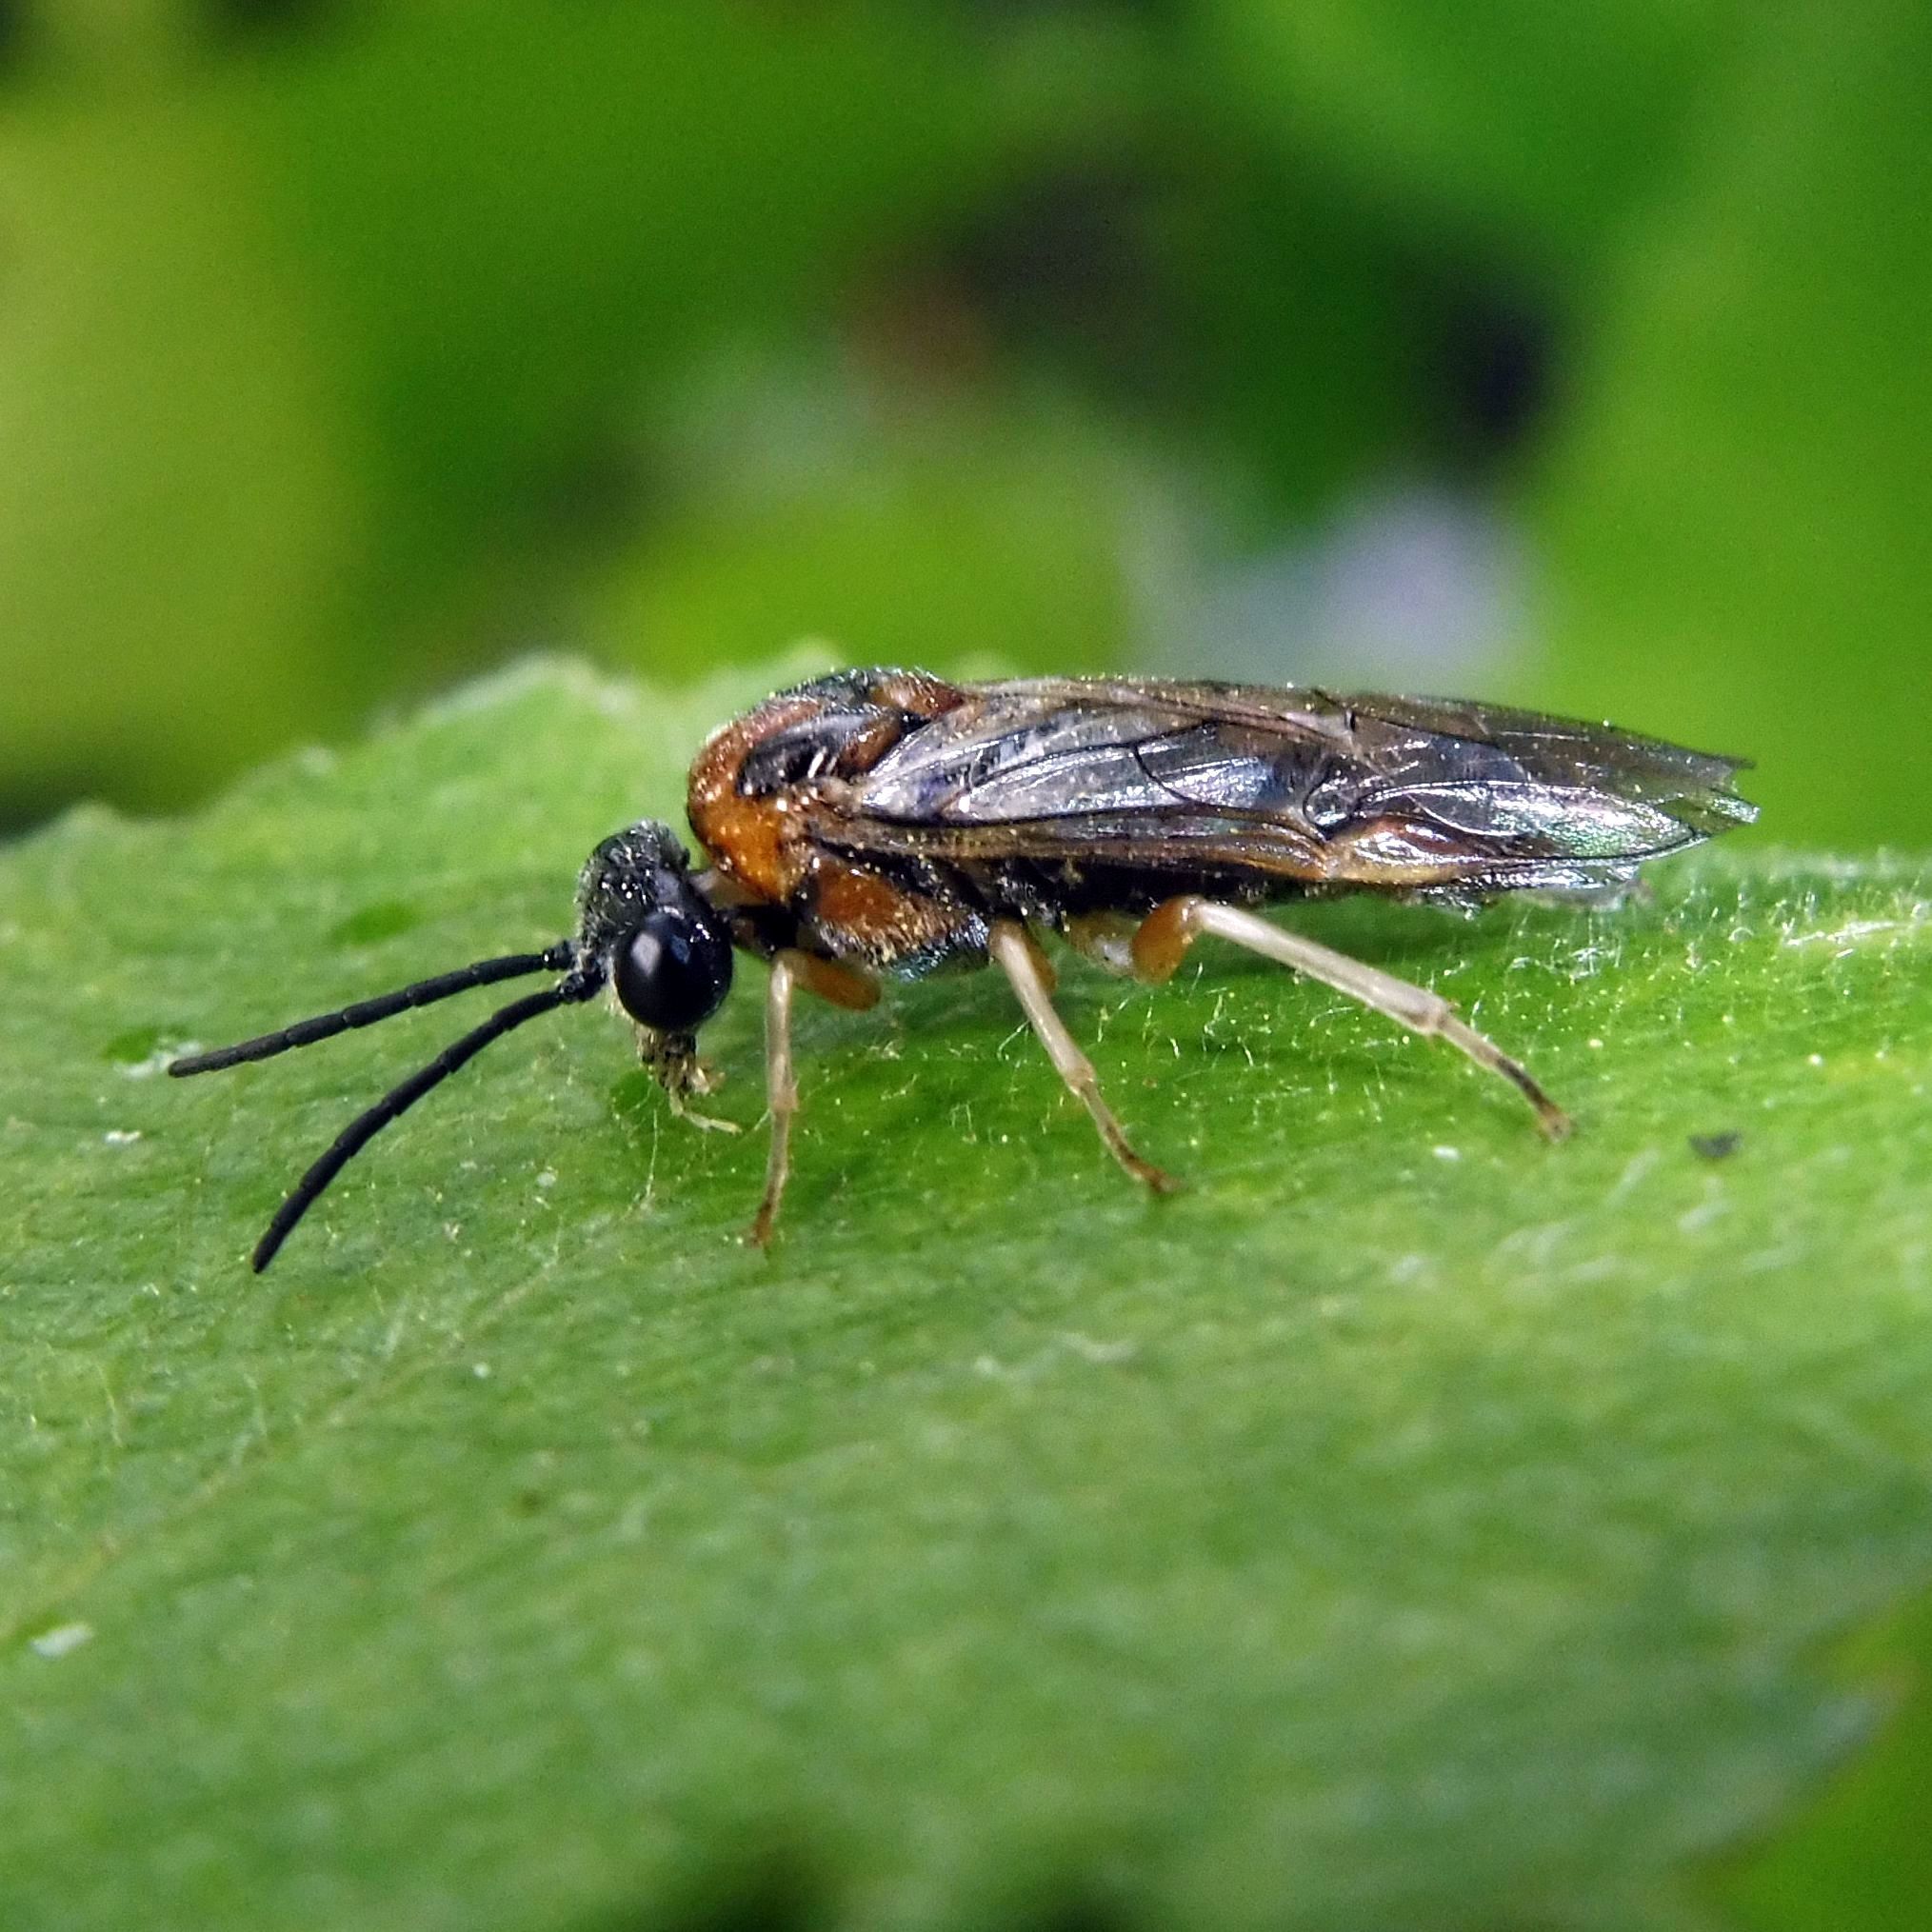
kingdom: Animalia
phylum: Arthropoda
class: Insecta
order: Hymenoptera
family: Tenthredinidae
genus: Mesoneura
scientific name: Mesoneura opaca
